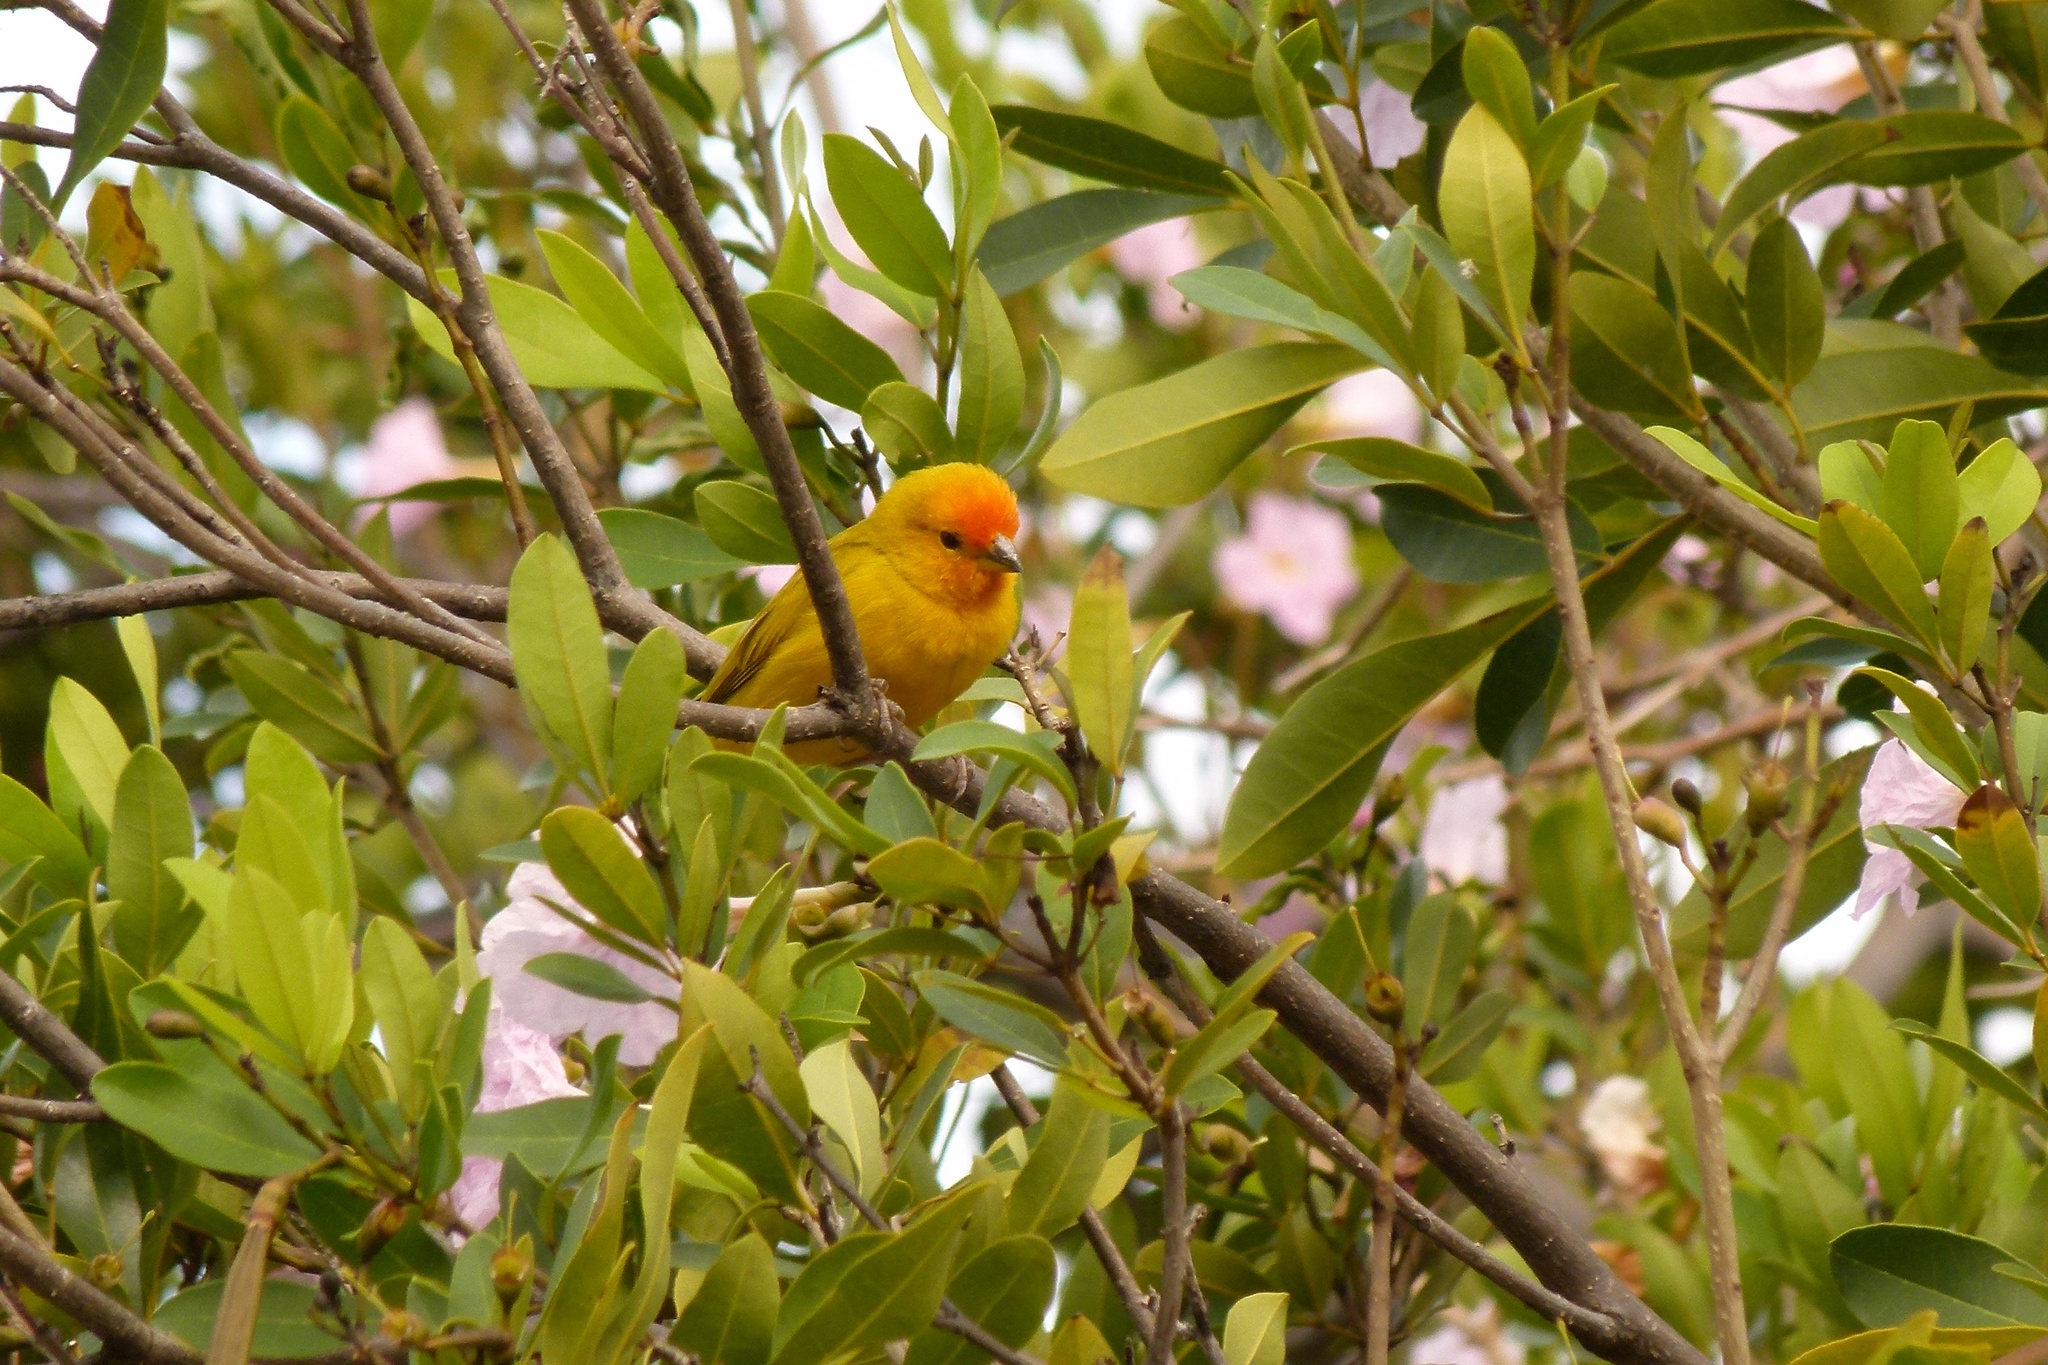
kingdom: Animalia
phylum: Chordata
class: Aves
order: Passeriformes
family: Thraupidae
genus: Sicalis
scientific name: Sicalis flaveola
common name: Saffron finch
